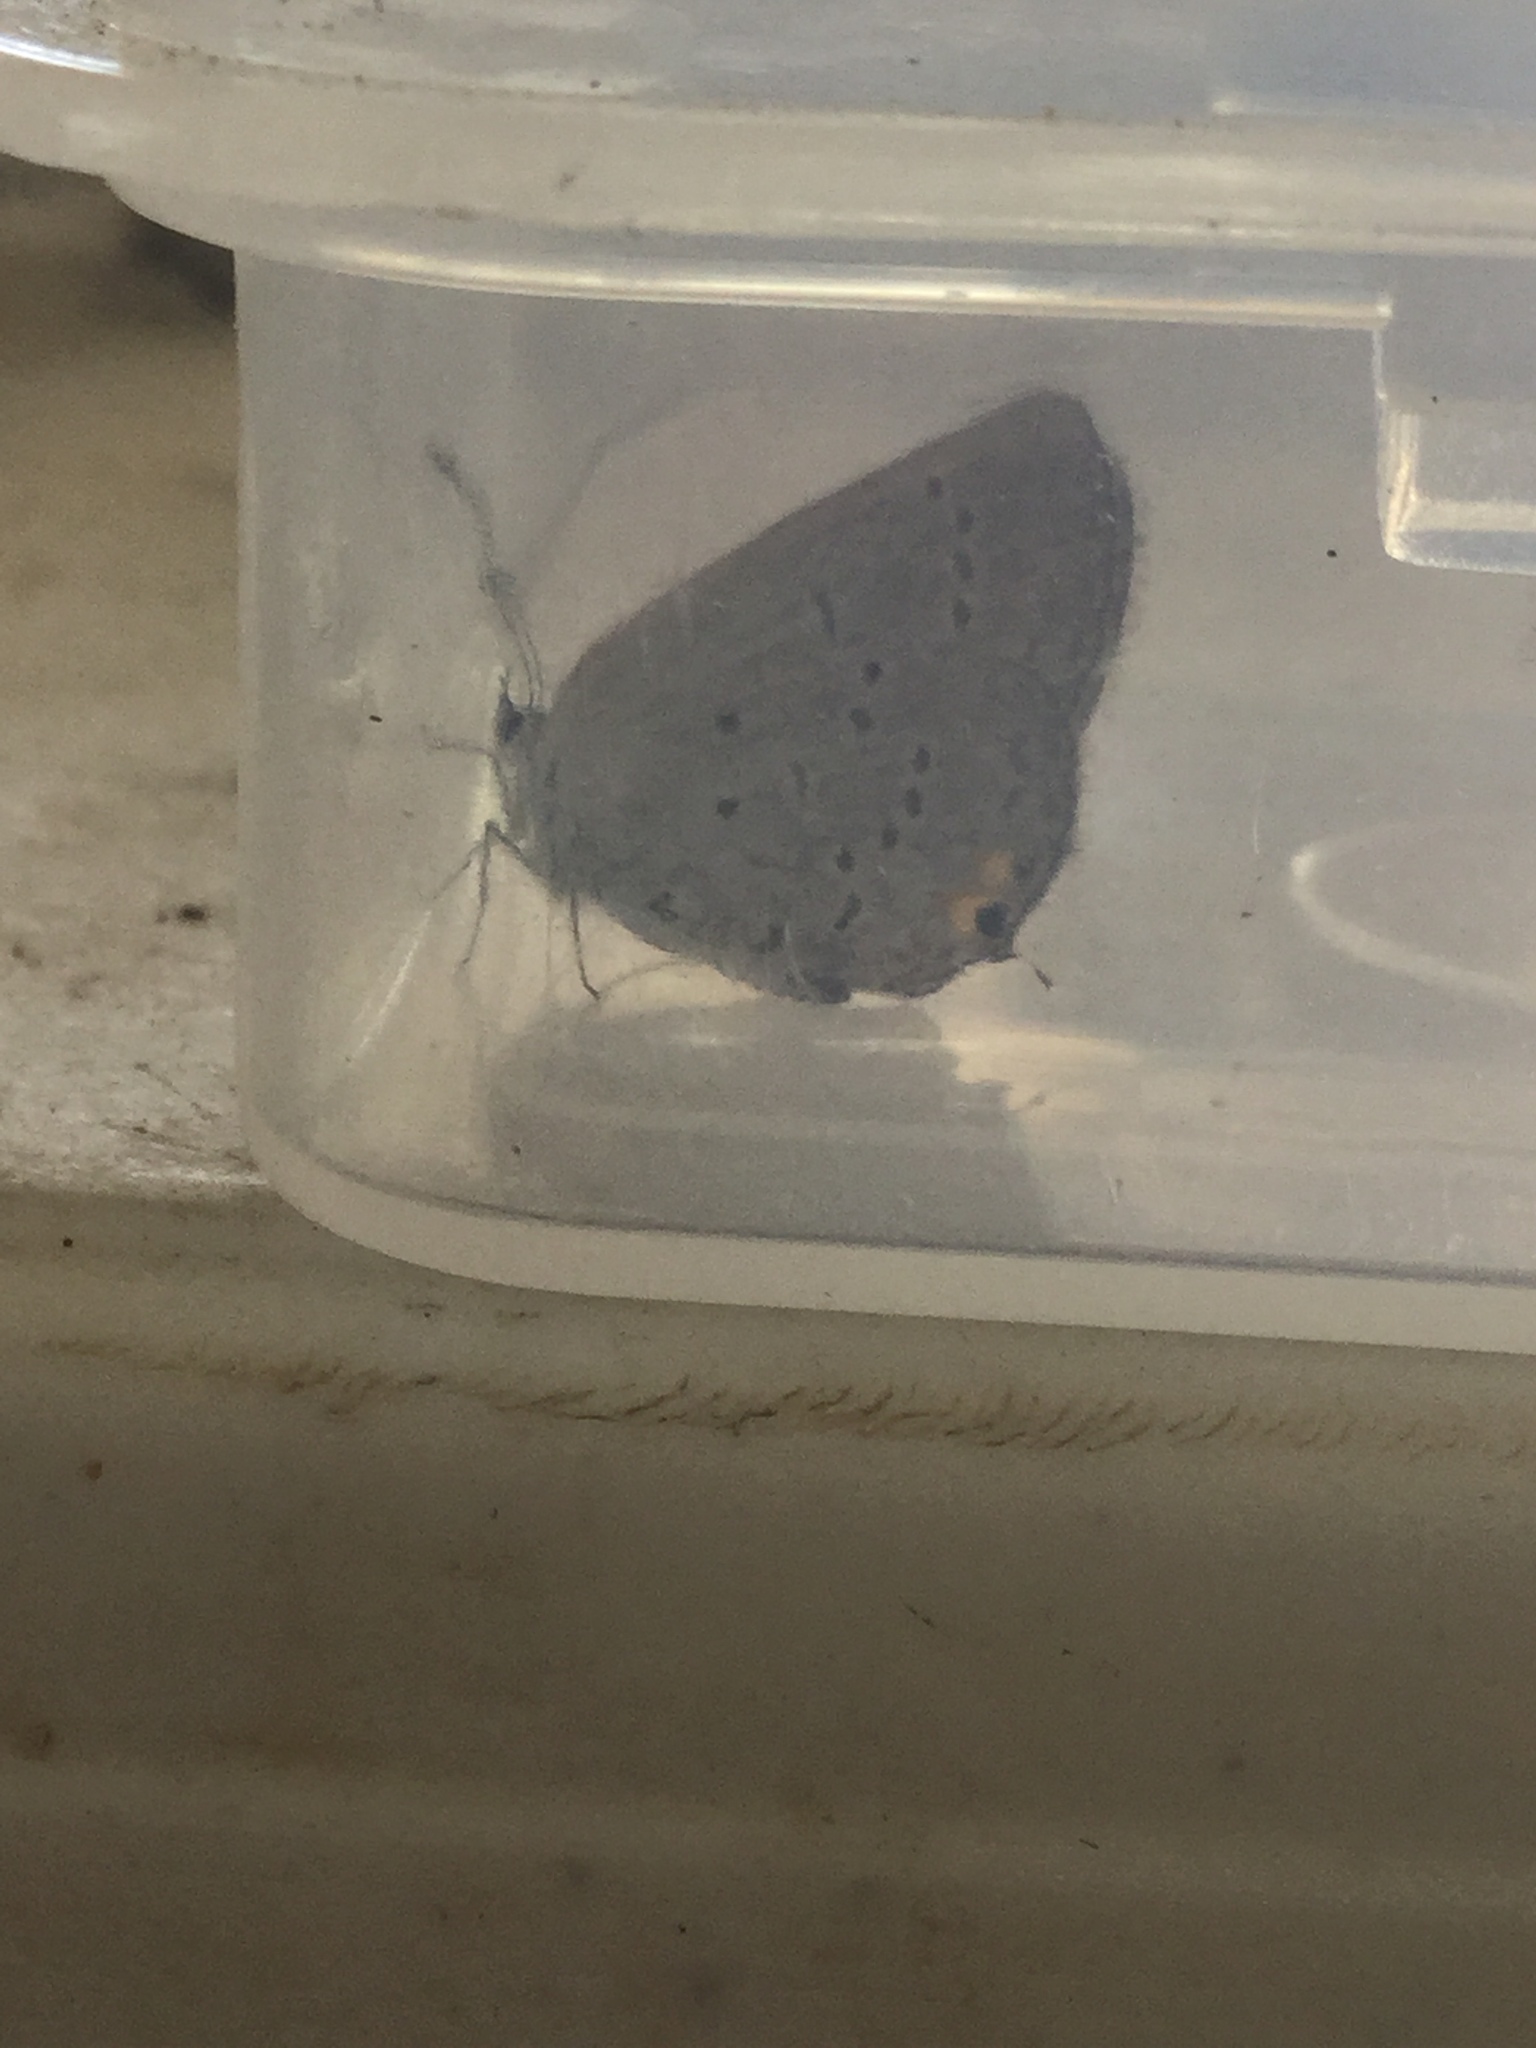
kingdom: Animalia
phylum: Arthropoda
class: Insecta
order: Lepidoptera
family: Lycaenidae
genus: Elkalyce
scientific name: Elkalyce comyntas
